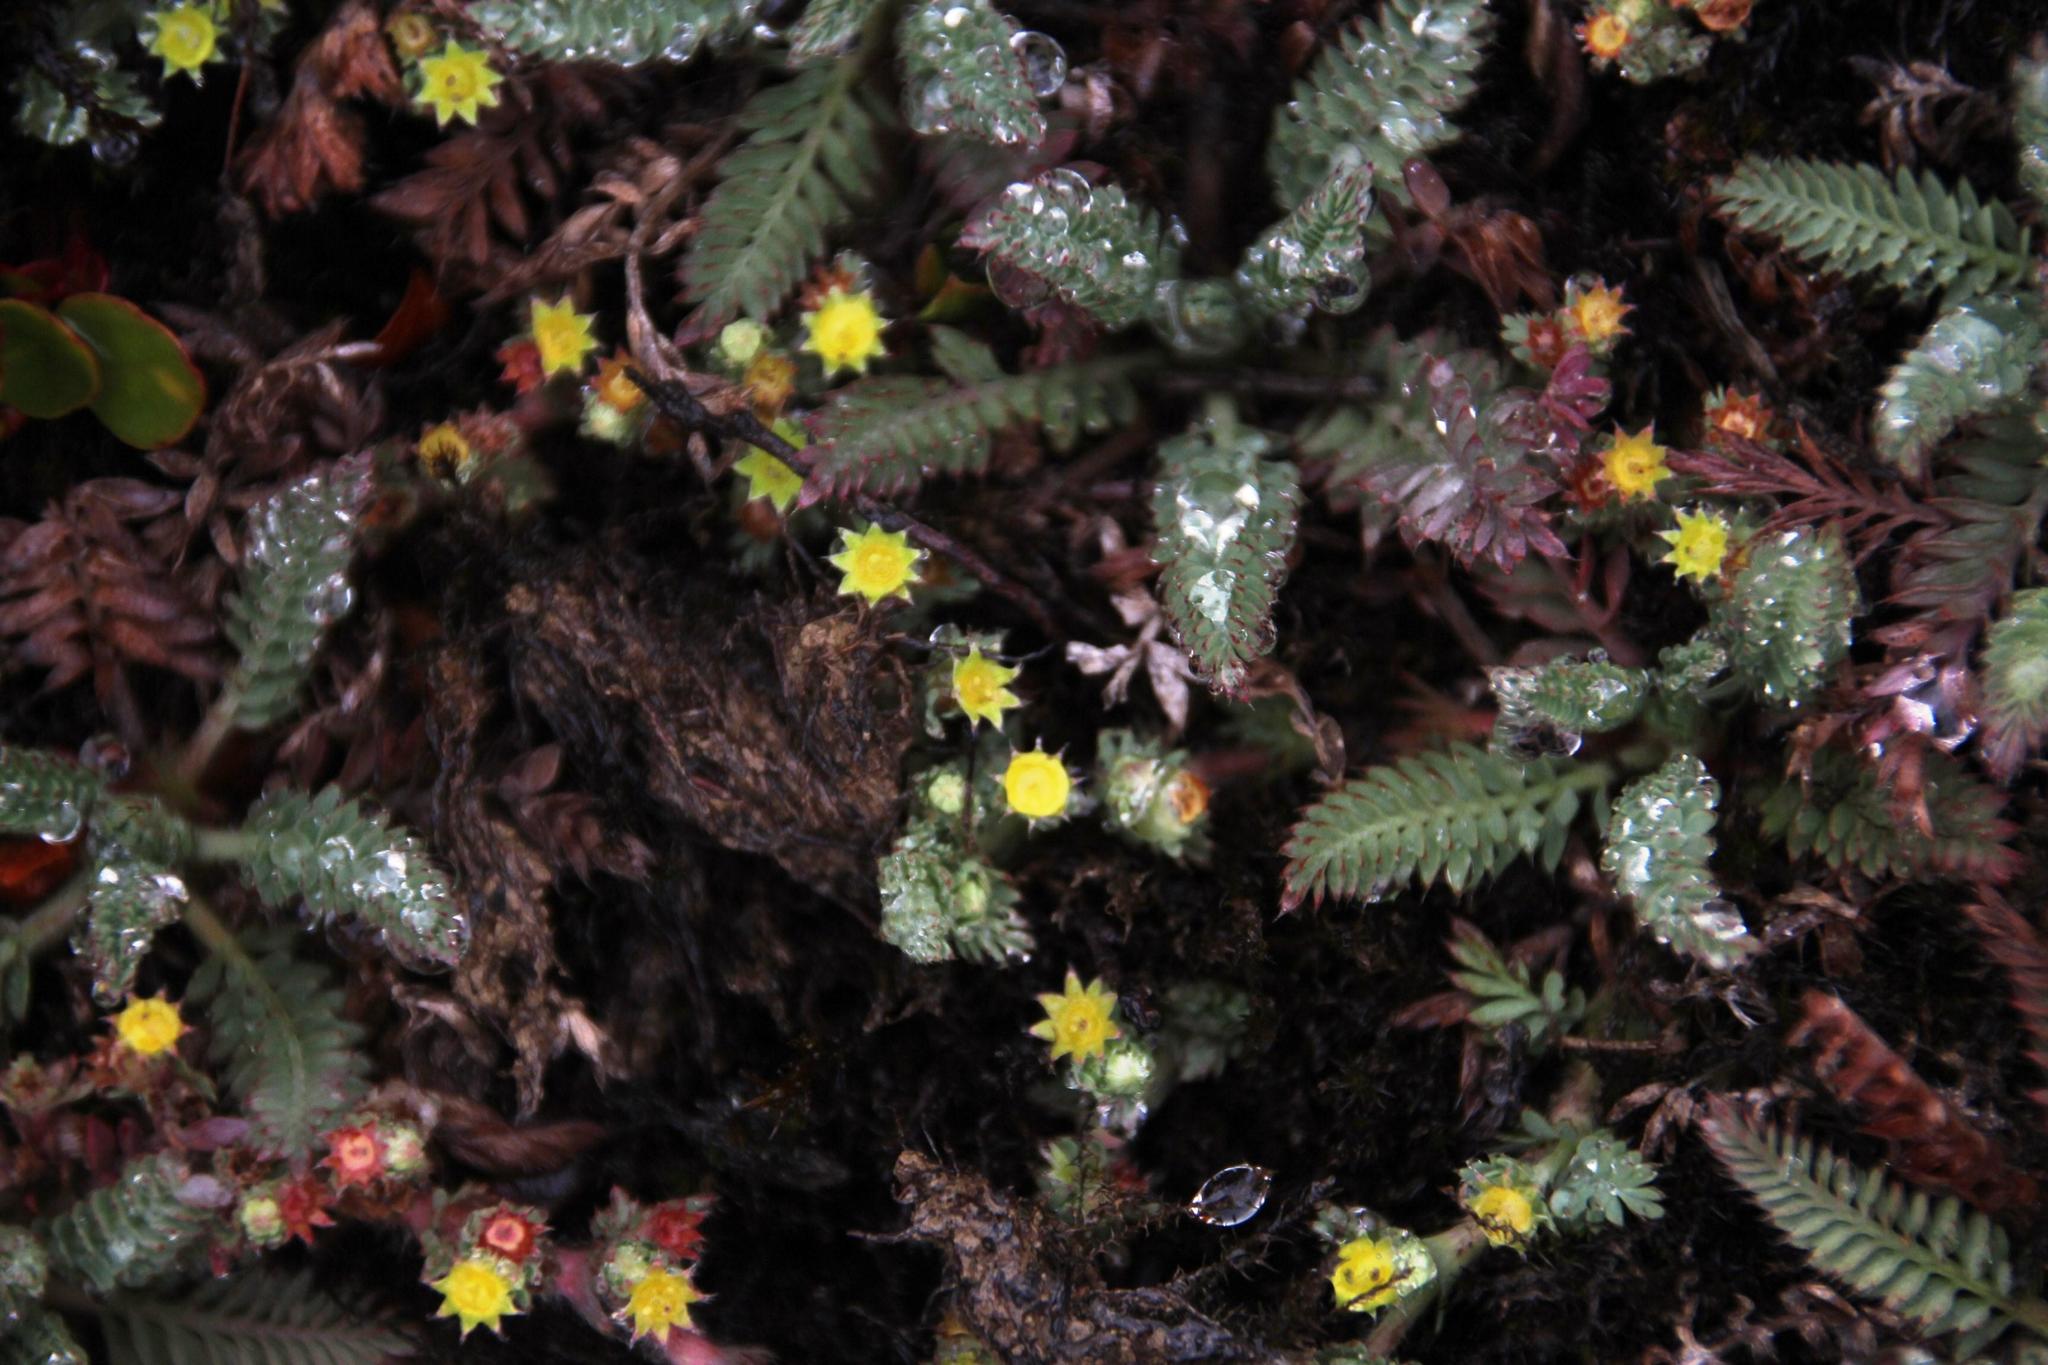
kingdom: Plantae
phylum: Tracheophyta
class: Magnoliopsida
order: Rosales
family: Rosaceae
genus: Lachemilla
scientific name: Lachemilla
